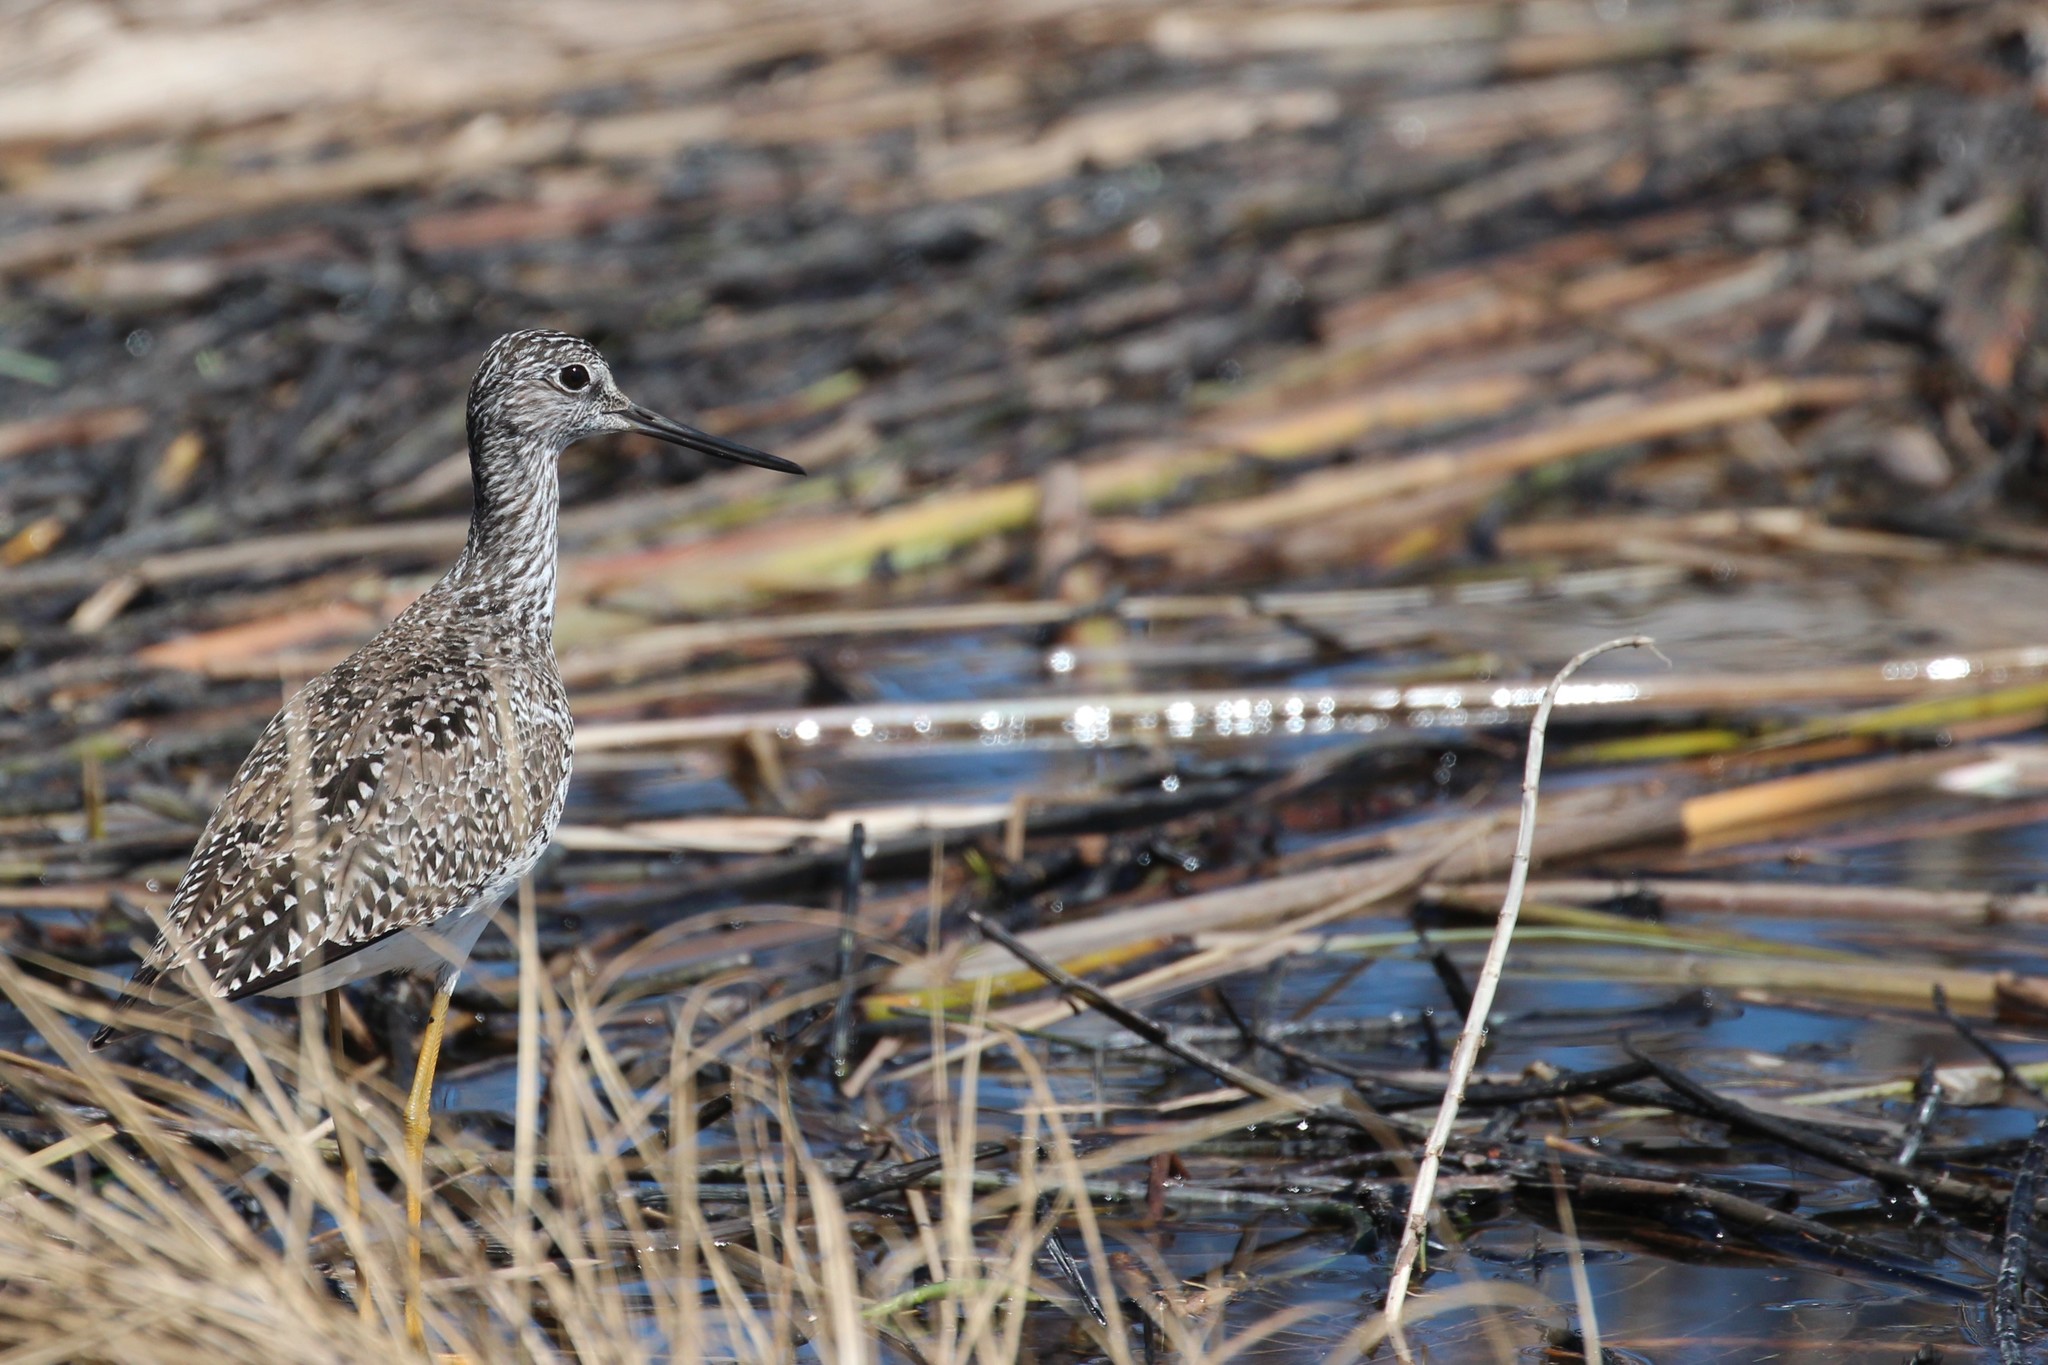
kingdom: Animalia
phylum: Chordata
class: Aves
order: Charadriiformes
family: Scolopacidae
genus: Tringa
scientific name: Tringa melanoleuca
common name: Greater yellowlegs
